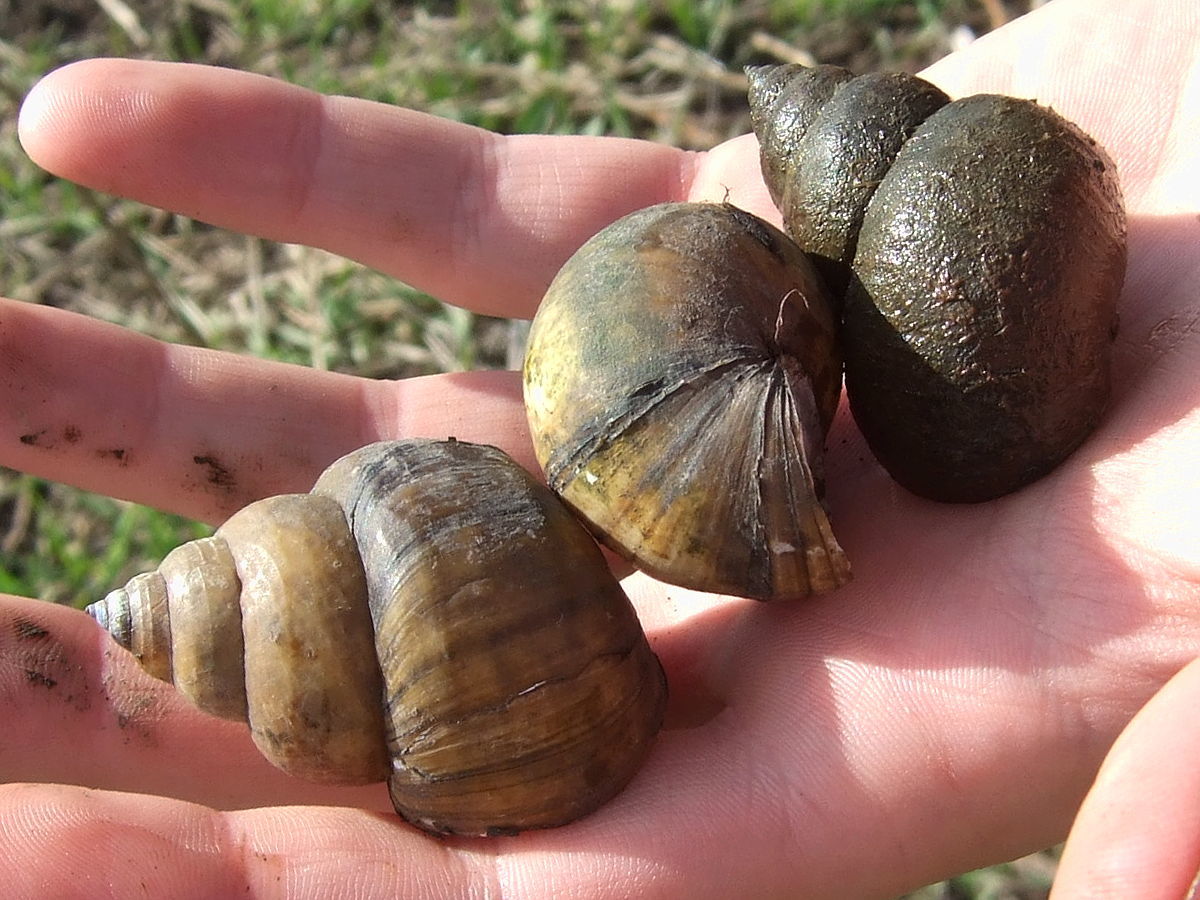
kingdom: Animalia
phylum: Mollusca
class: Gastropoda
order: Architaenioglossa
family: Viviparidae
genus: Cipangopaludina
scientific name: Cipangopaludina chinensis
